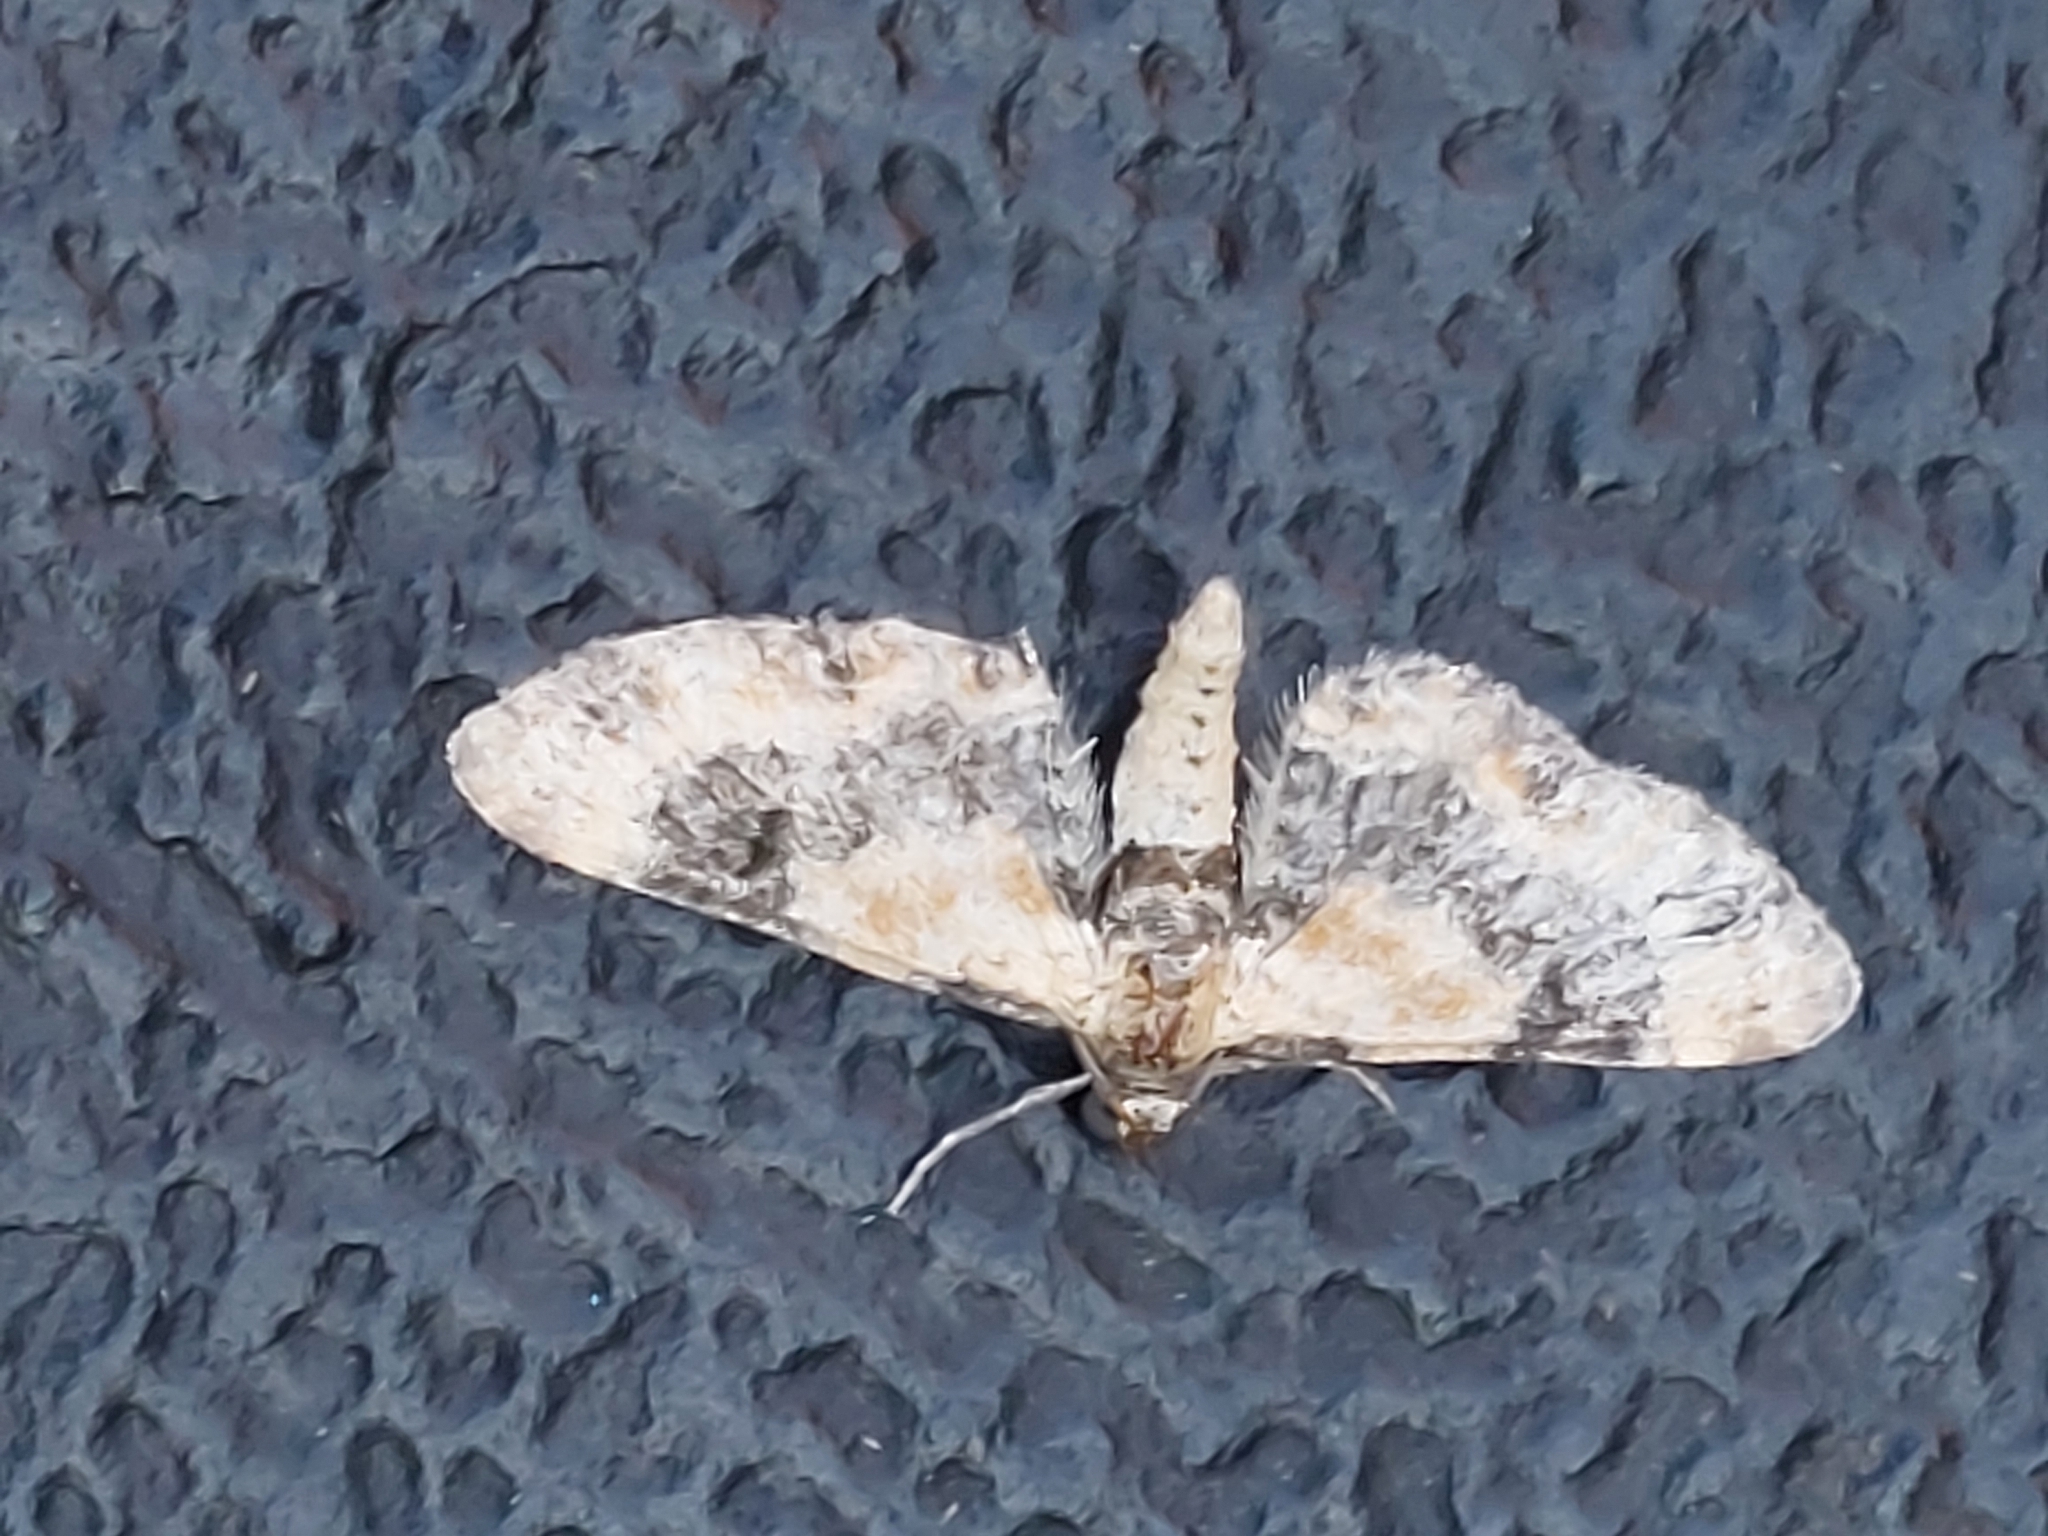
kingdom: Animalia
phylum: Arthropoda
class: Insecta
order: Lepidoptera
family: Geometridae
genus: Eupithecia
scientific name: Eupithecia linariata
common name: Toadflax pug
